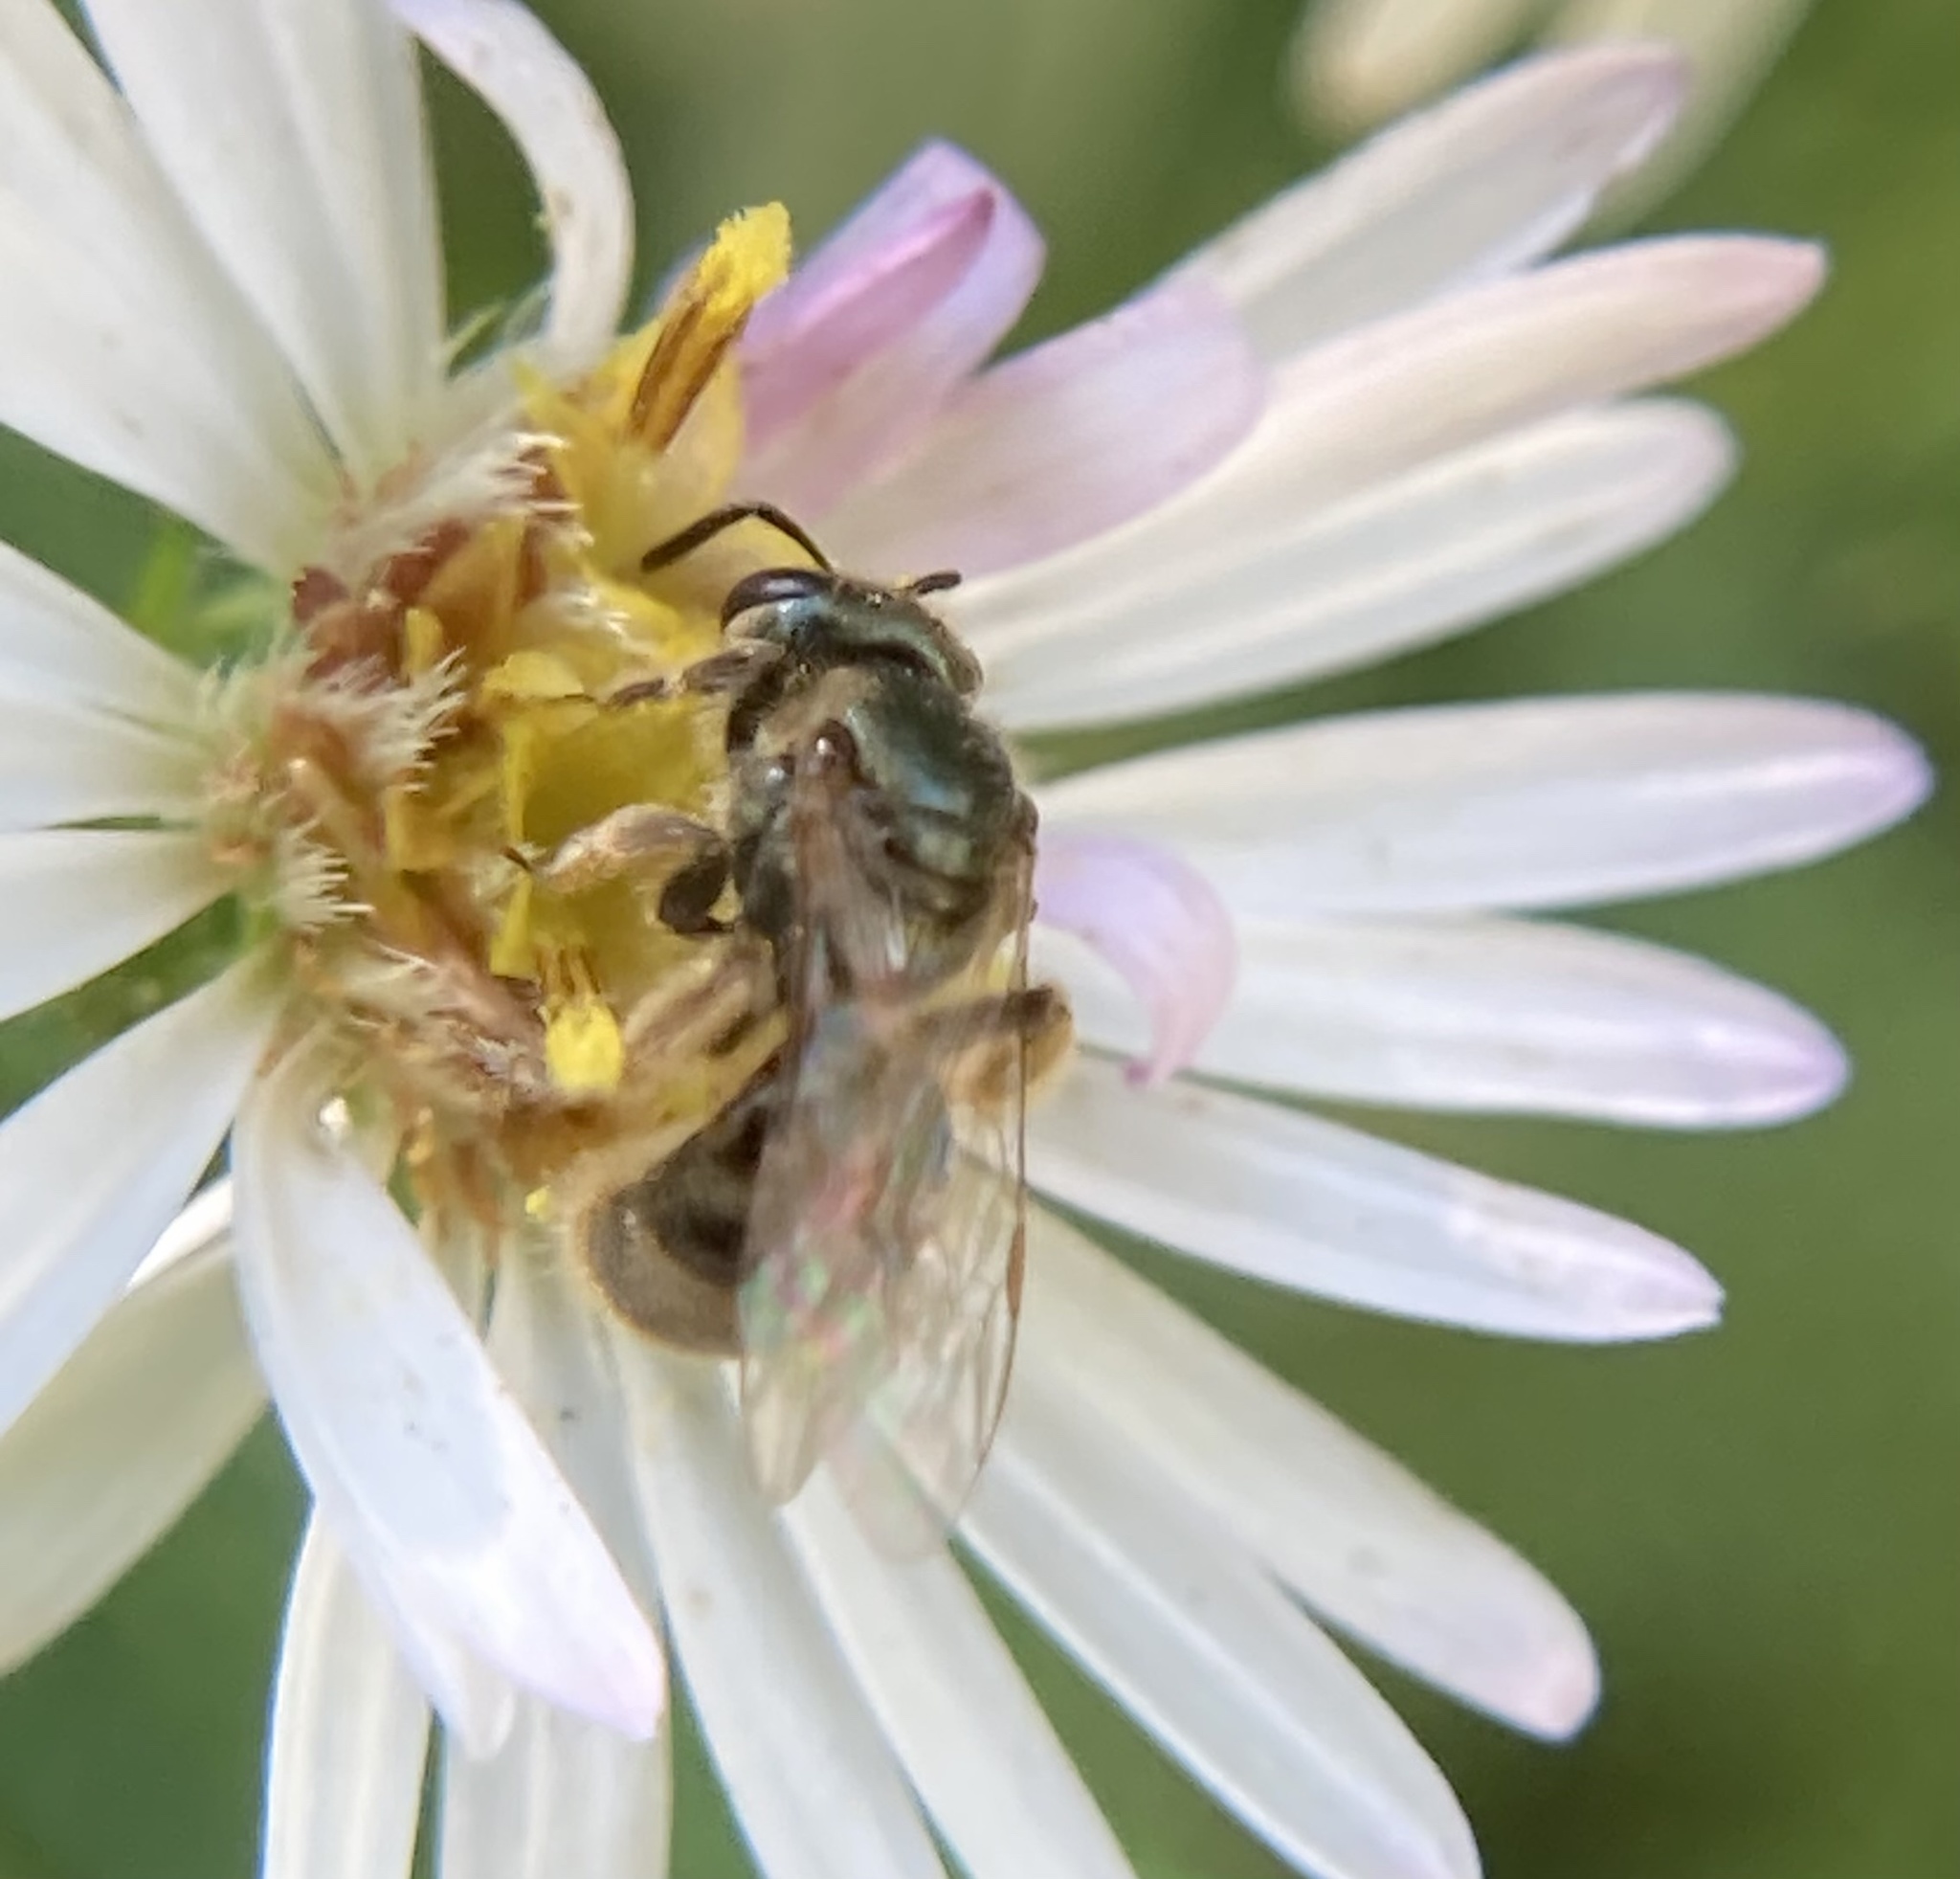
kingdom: Animalia
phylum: Arthropoda
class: Insecta
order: Hymenoptera
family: Halictidae
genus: Dialictus
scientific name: Dialictus
